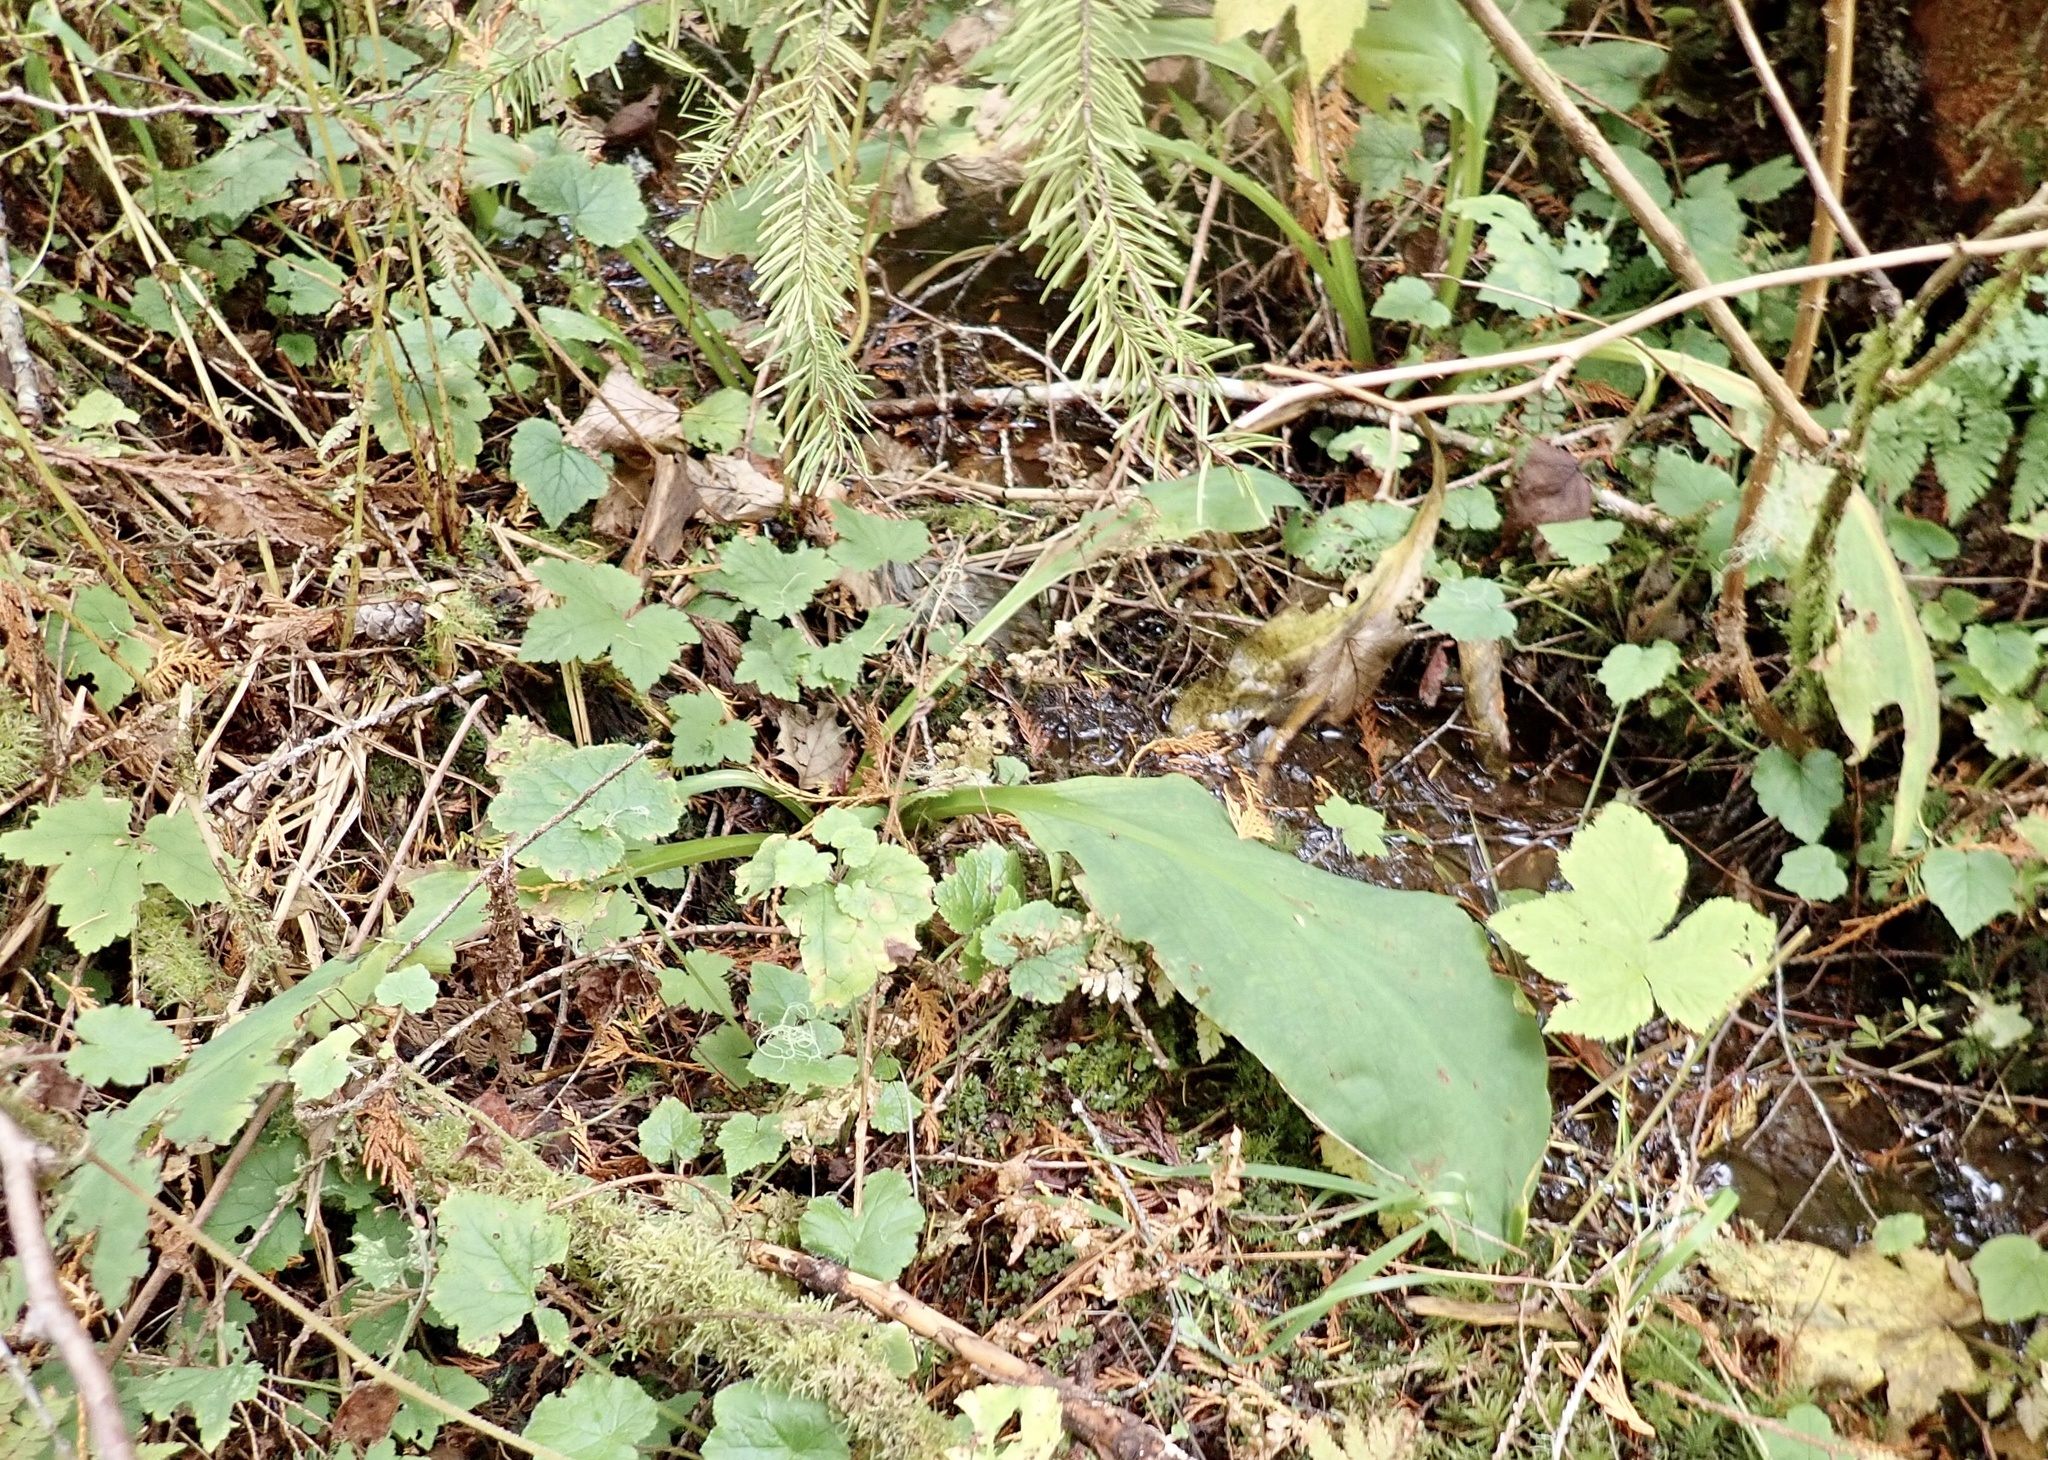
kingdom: Plantae
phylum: Tracheophyta
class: Liliopsida
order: Alismatales
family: Araceae
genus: Lysichiton
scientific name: Lysichiton americanus
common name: American skunk cabbage
